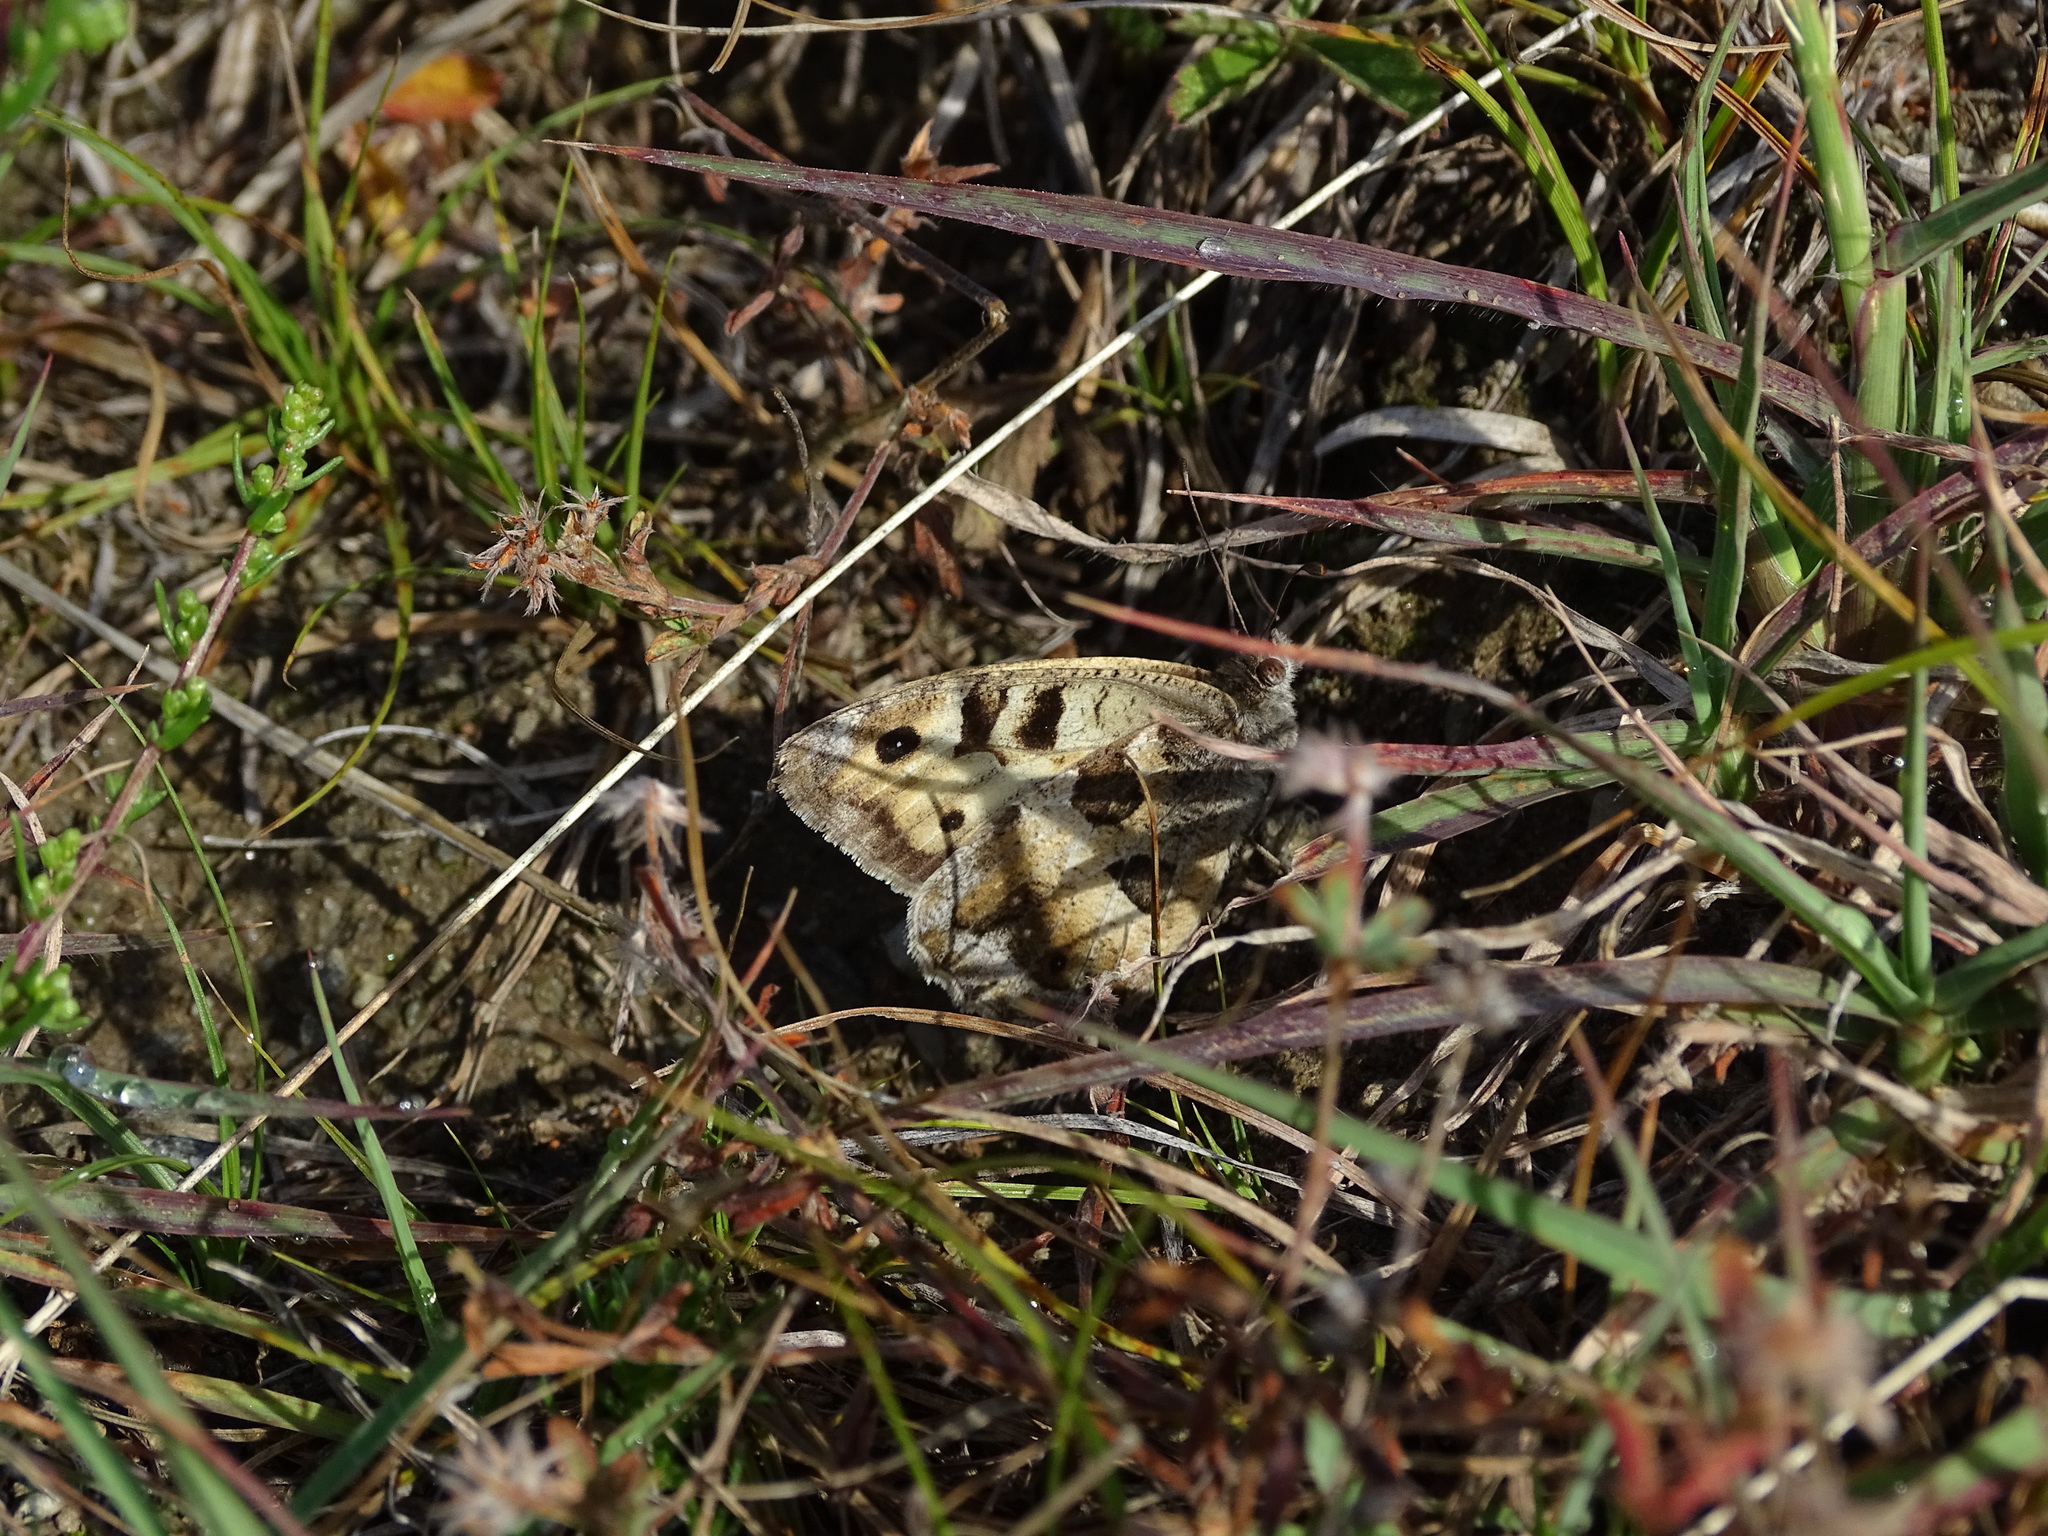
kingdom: Animalia
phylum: Arthropoda
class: Insecta
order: Lepidoptera
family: Nymphalidae
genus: Satyrus
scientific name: Satyrus briseis
